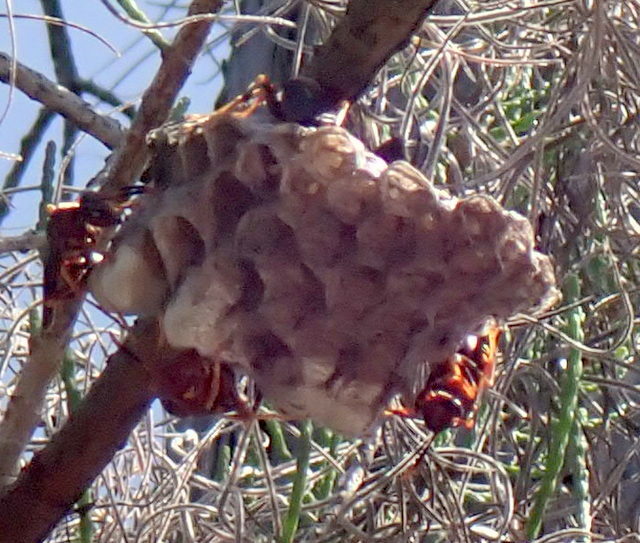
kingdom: Animalia
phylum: Arthropoda
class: Insecta
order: Hymenoptera
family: Eumenidae
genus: Polistes
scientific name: Polistes annularis
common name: Ringed paper wasp
